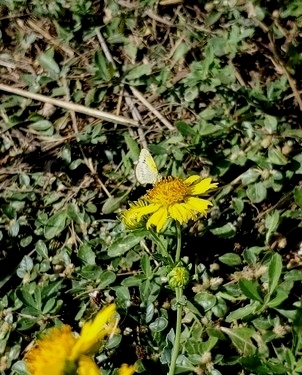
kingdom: Animalia
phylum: Arthropoda
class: Insecta
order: Lepidoptera
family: Pieridae
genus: Nathalis
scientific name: Nathalis iole
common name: Dainty sulphur
